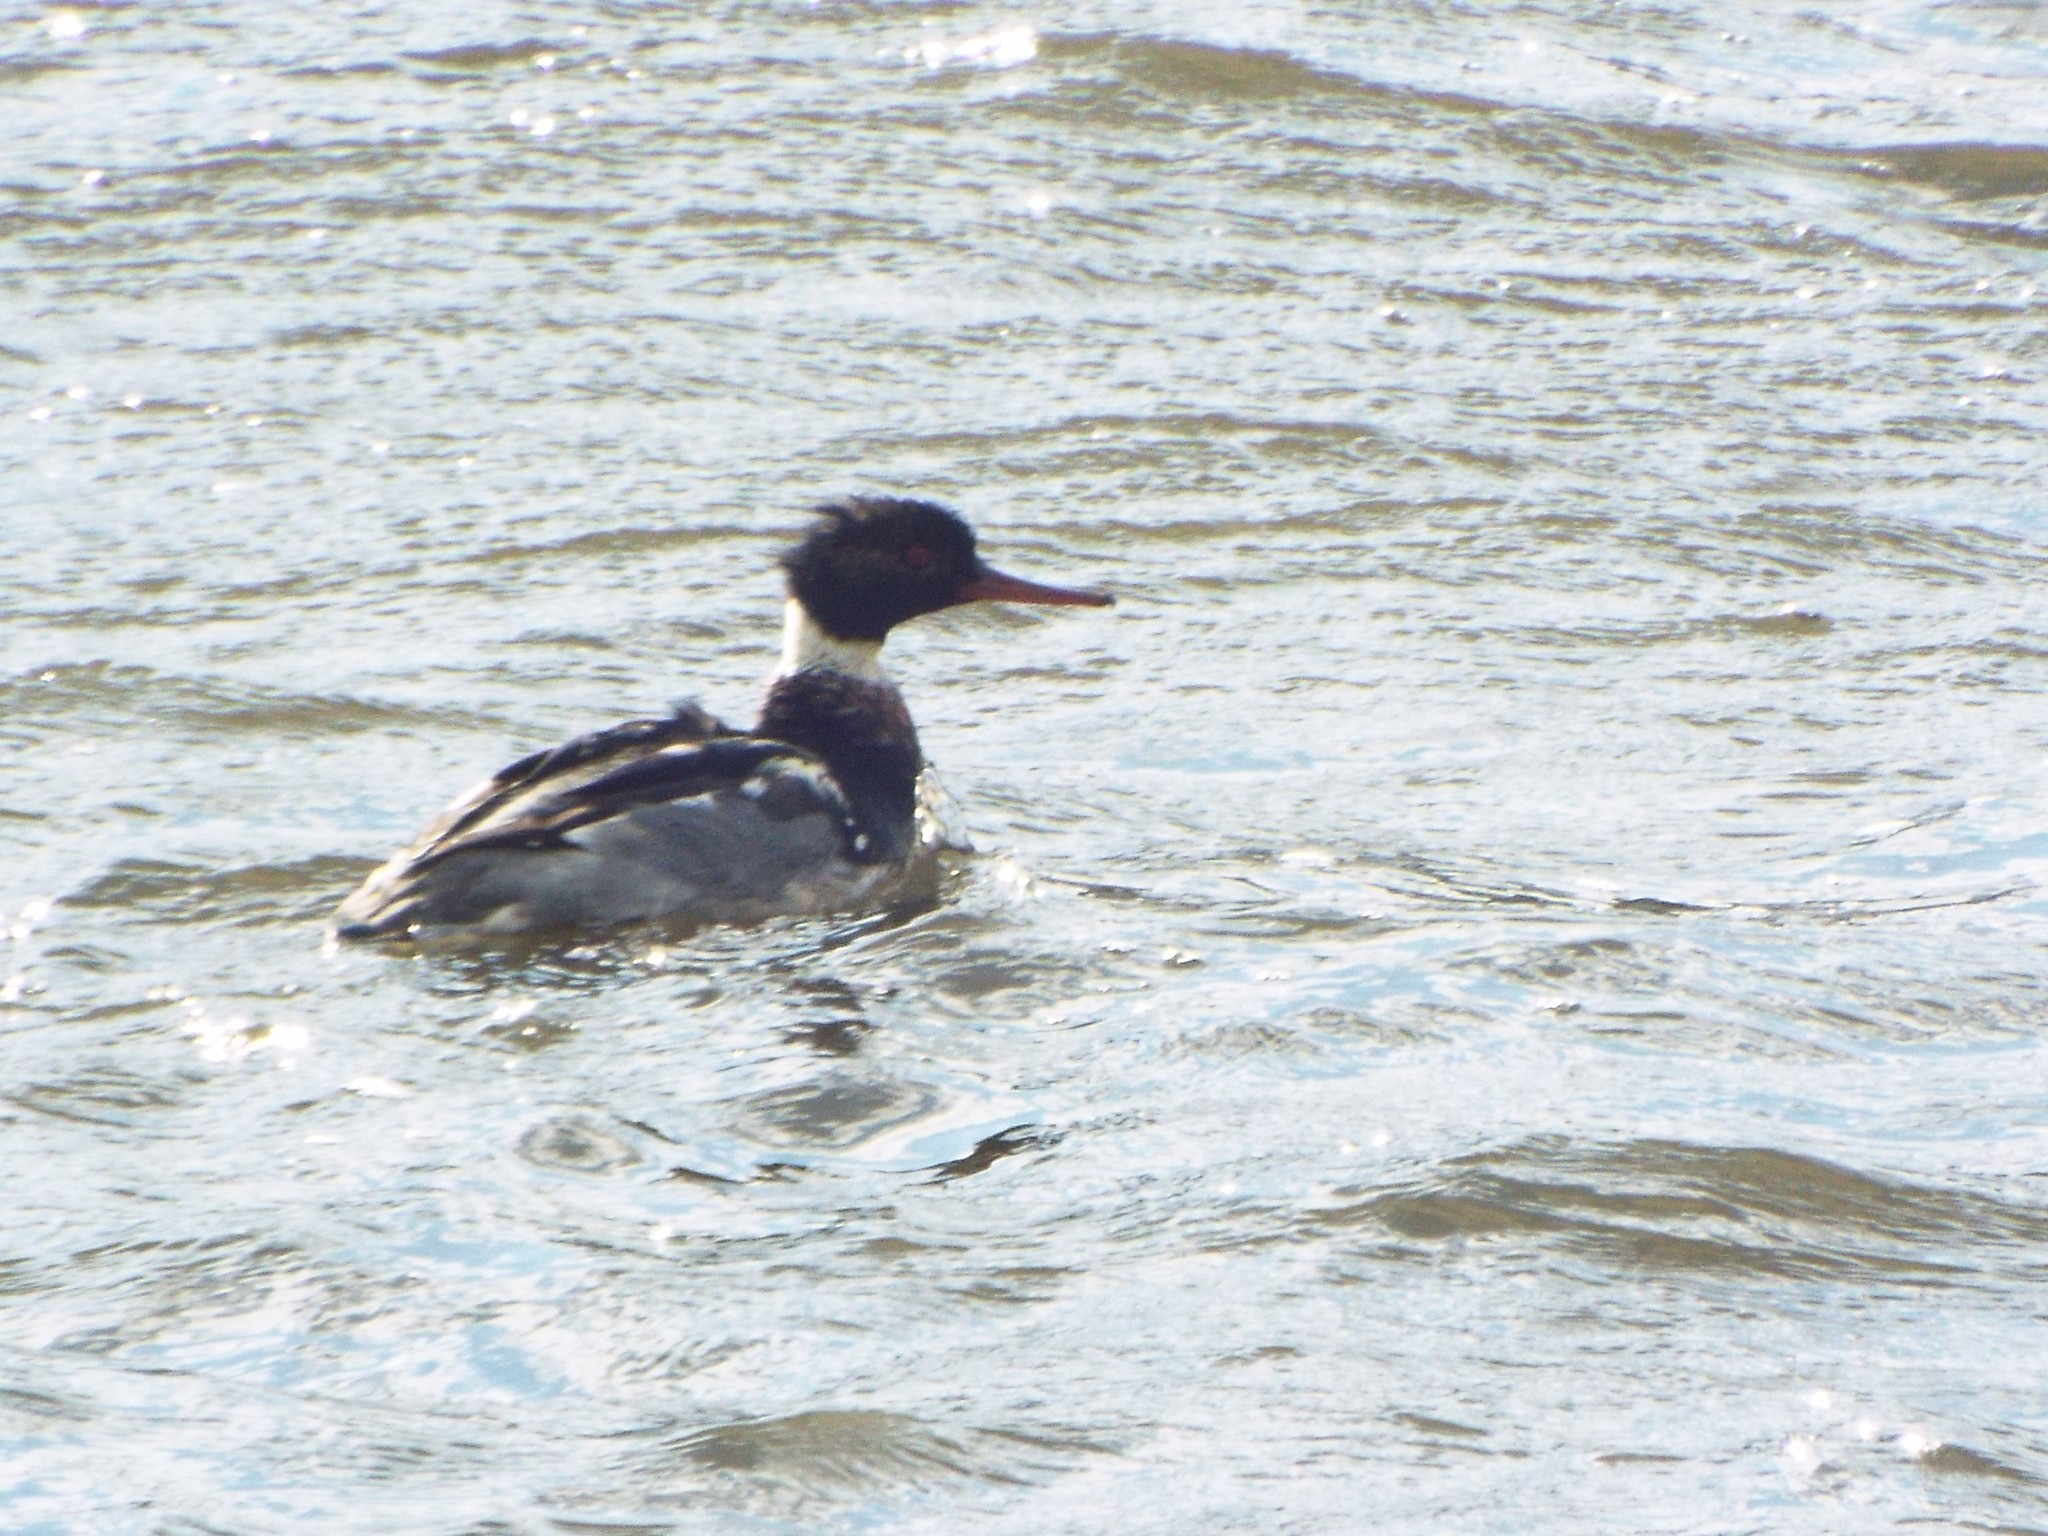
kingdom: Animalia
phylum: Chordata
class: Aves
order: Anseriformes
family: Anatidae
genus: Mergus
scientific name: Mergus serrator
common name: Red-breasted merganser
